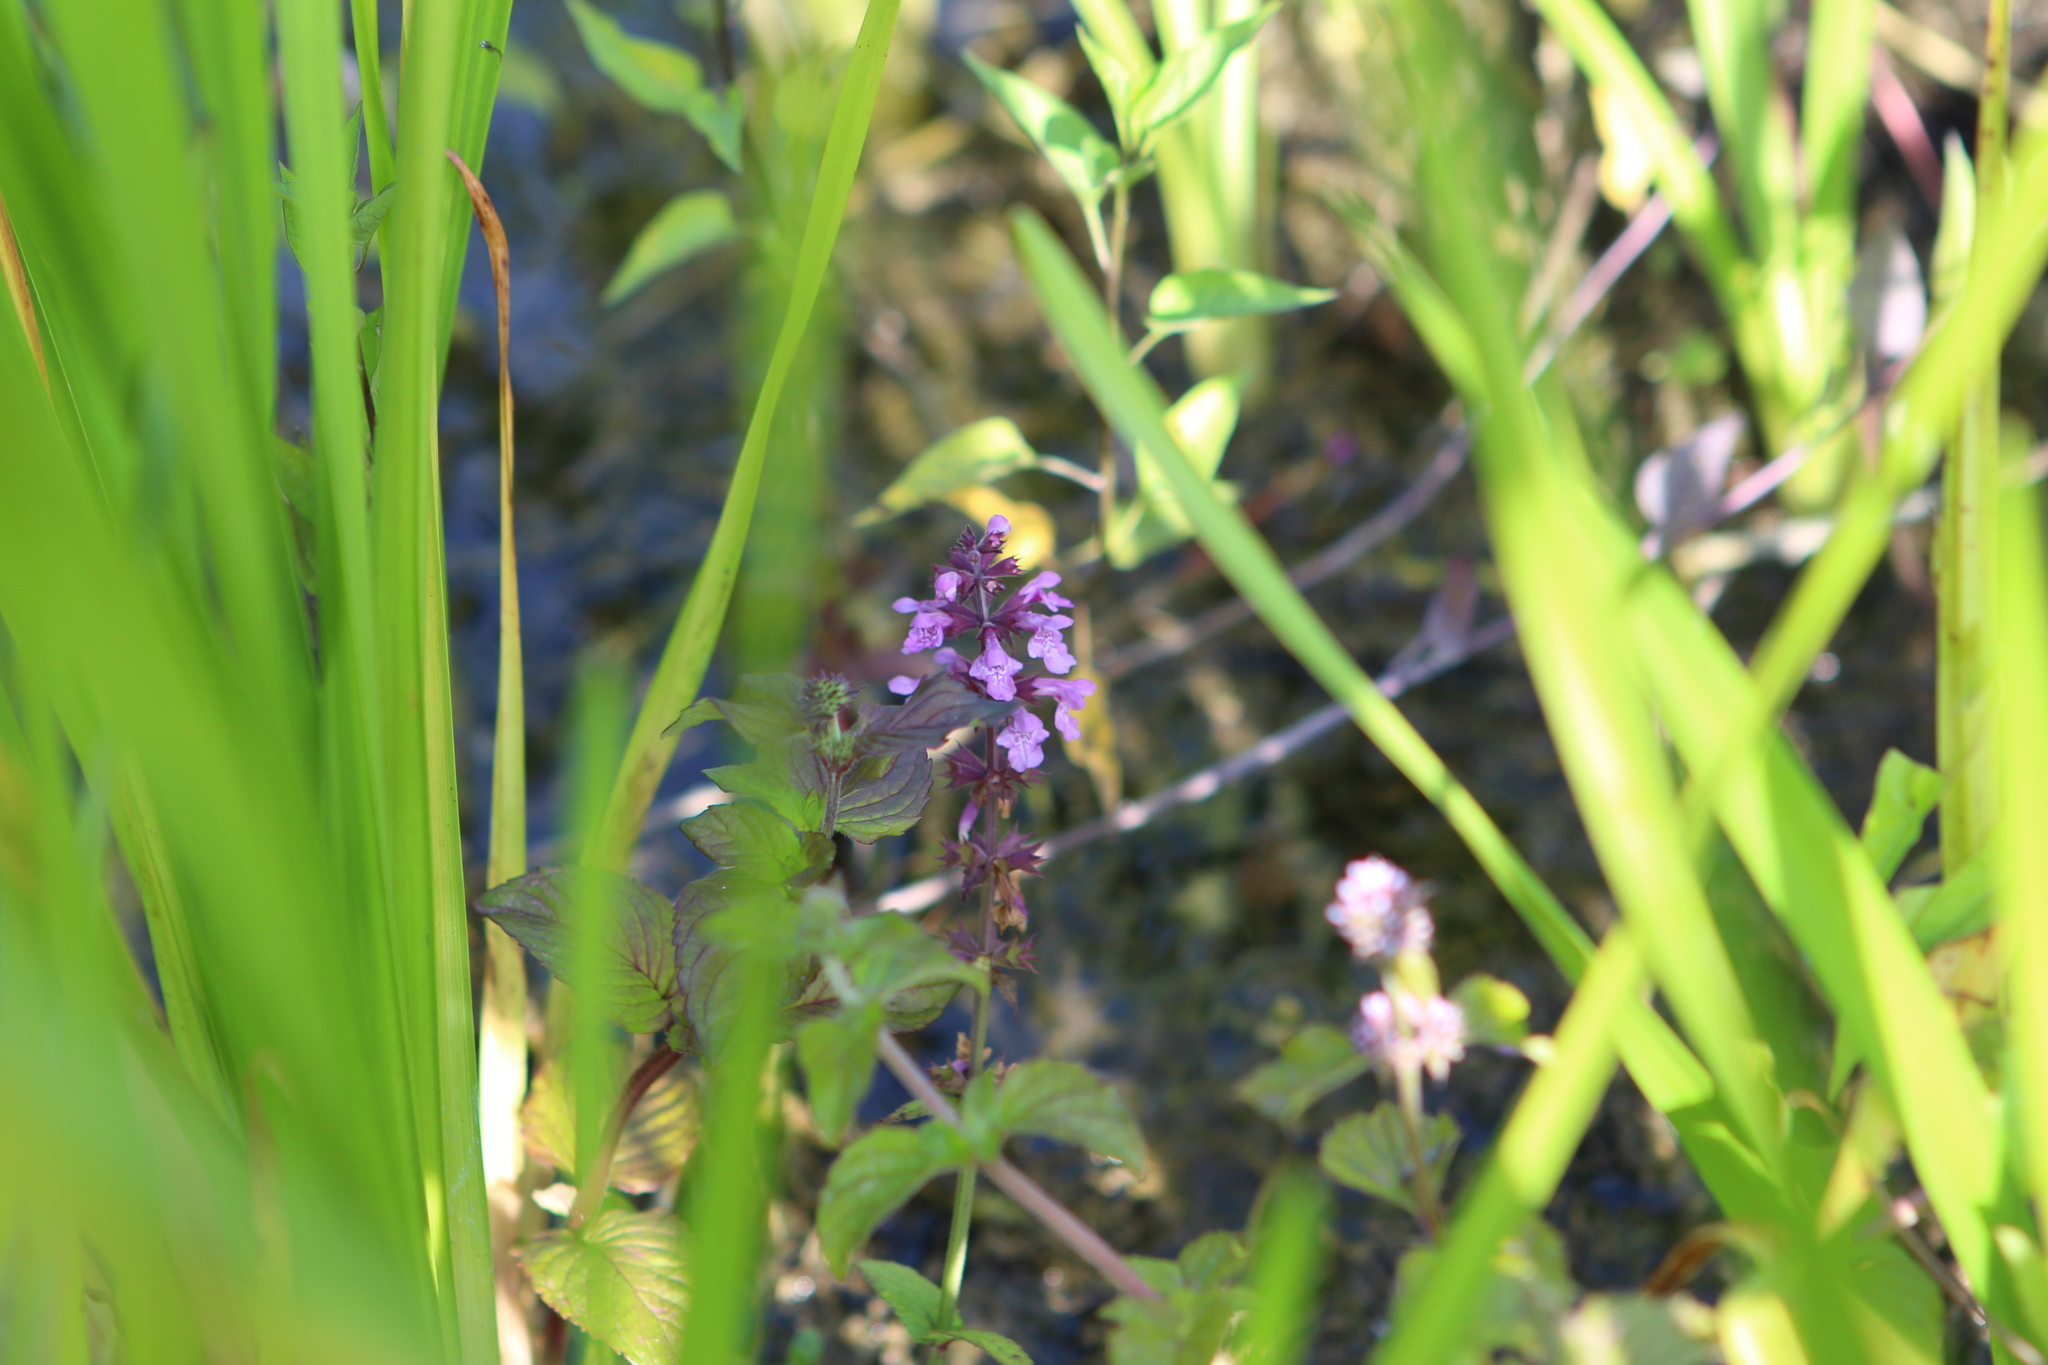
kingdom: Plantae
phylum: Tracheophyta
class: Magnoliopsida
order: Lamiales
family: Lamiaceae
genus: Stachys
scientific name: Stachys palustris
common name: Marsh woundwort
